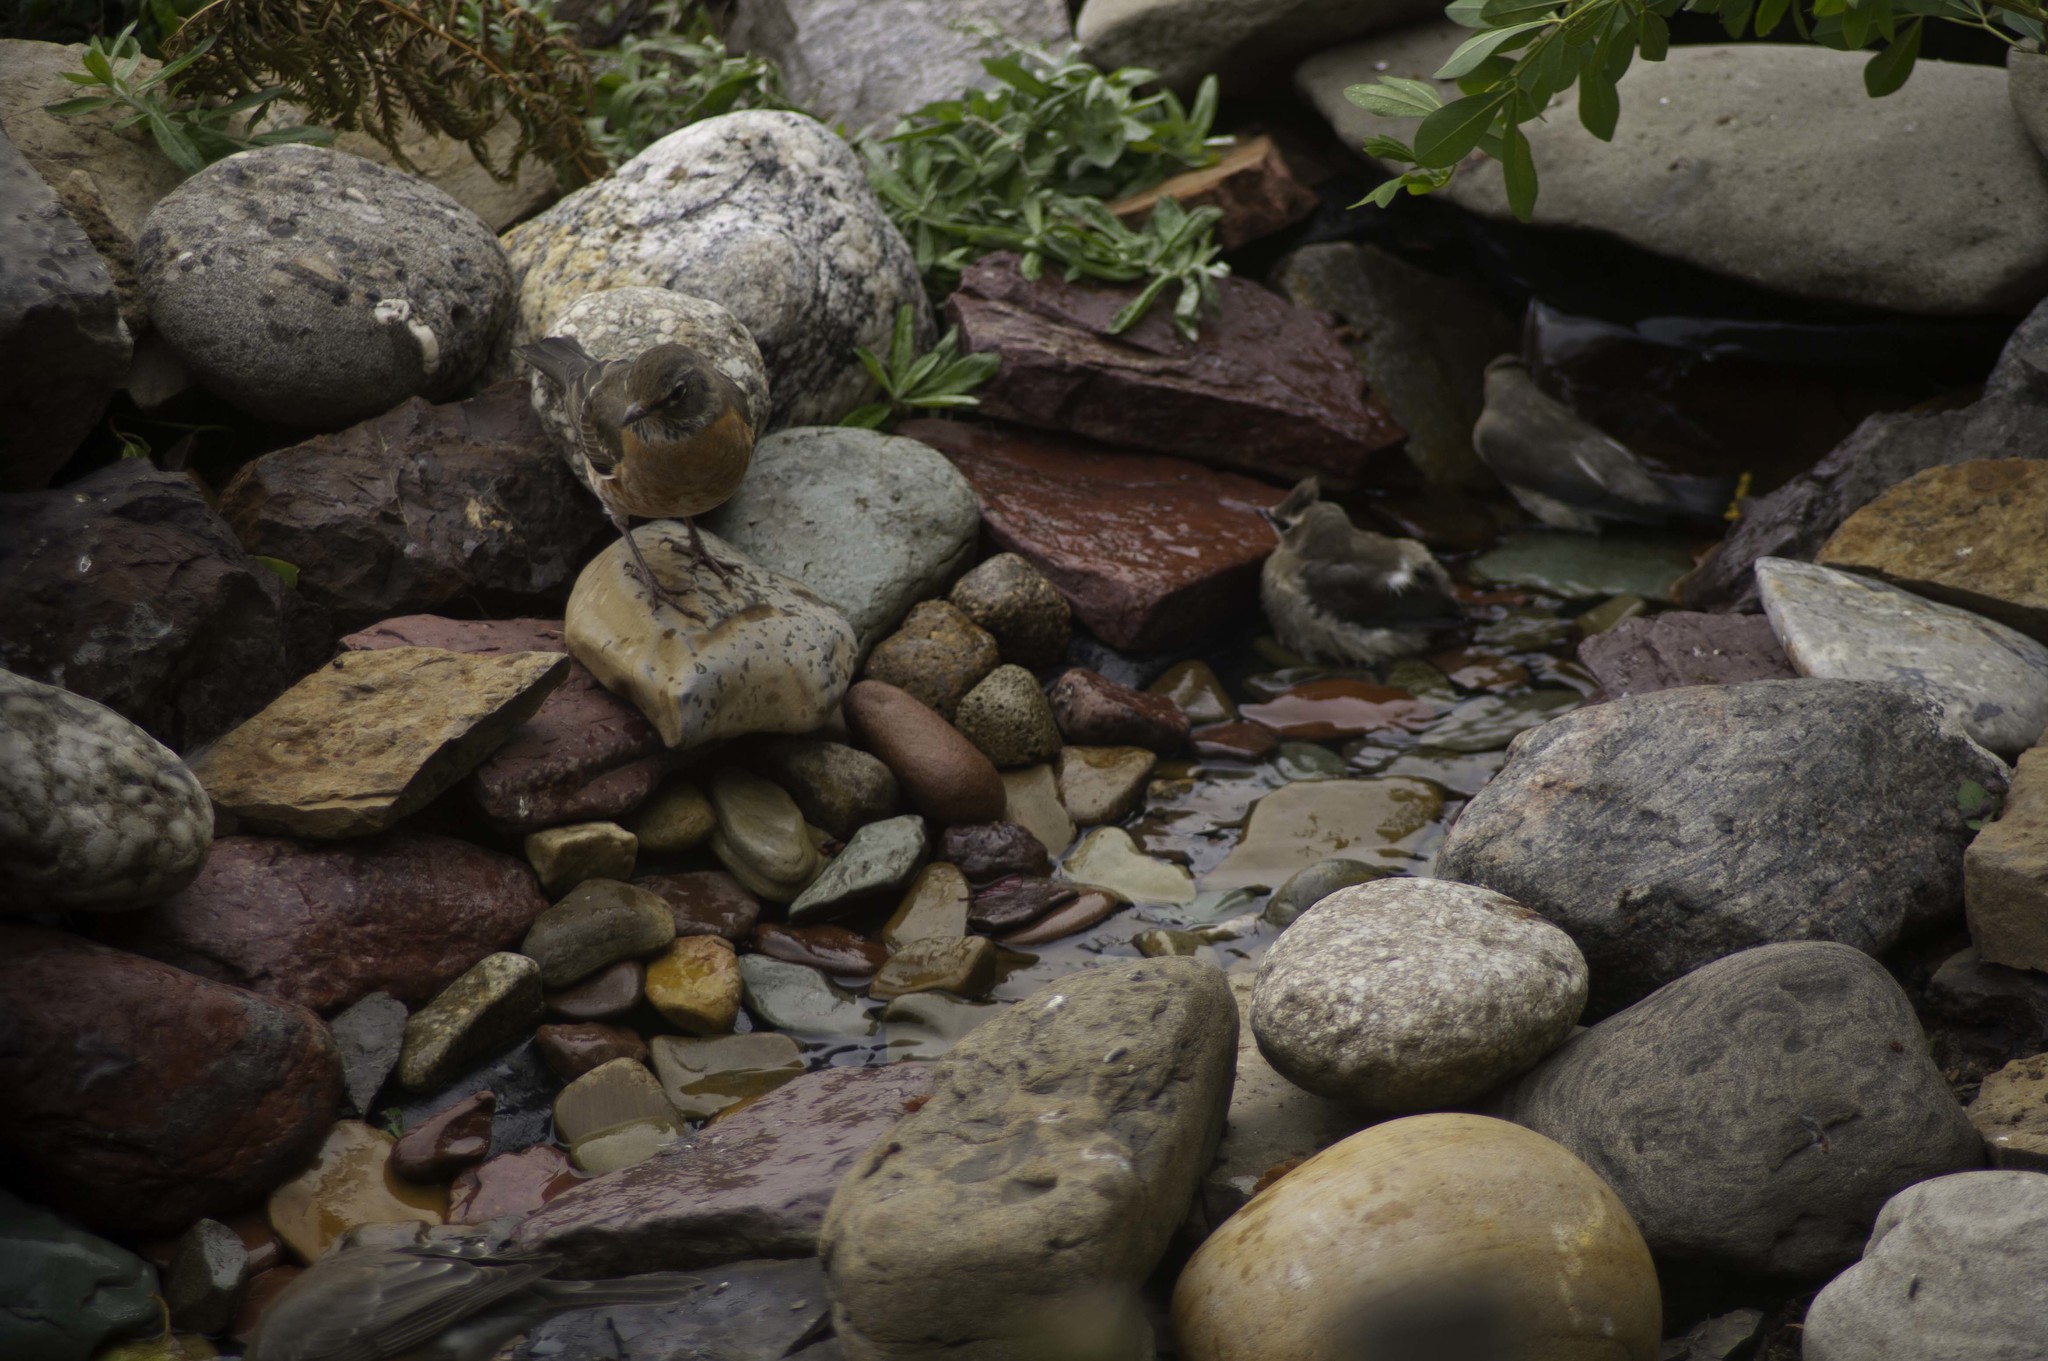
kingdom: Animalia
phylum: Chordata
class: Aves
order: Passeriformes
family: Bombycillidae
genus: Bombycilla
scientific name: Bombycilla cedrorum
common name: Cedar waxwing
